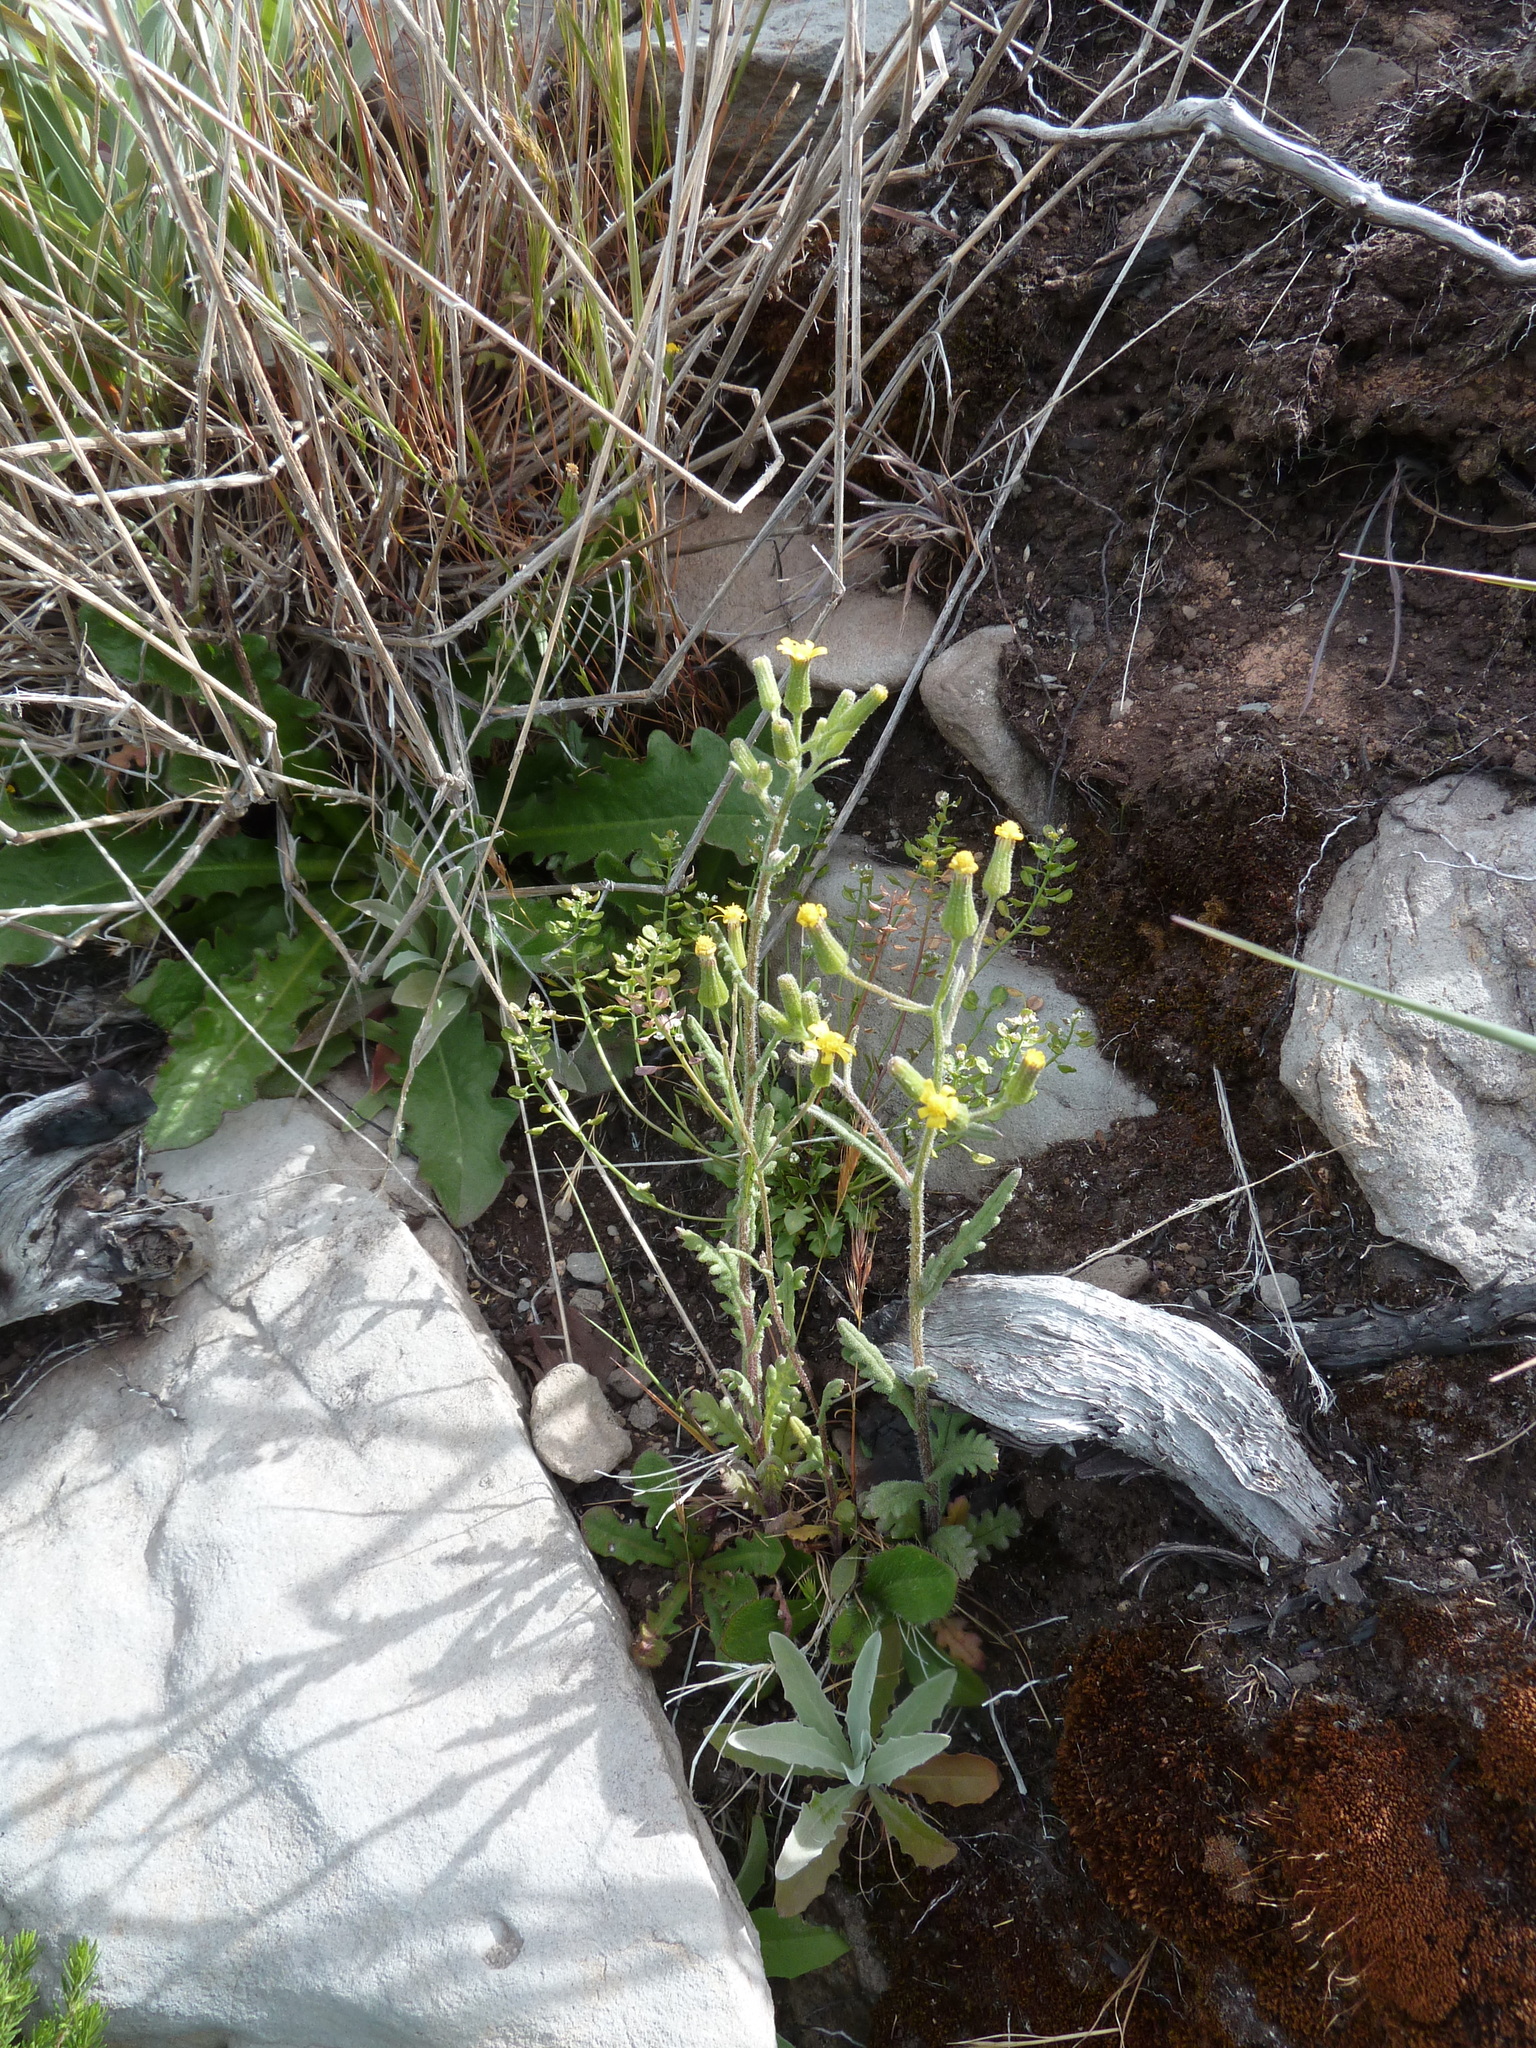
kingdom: Plantae
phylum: Tracheophyta
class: Magnoliopsida
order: Asterales
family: Asteraceae
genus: Senecio
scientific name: Senecio sylvaticus
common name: Woodland ragwort
